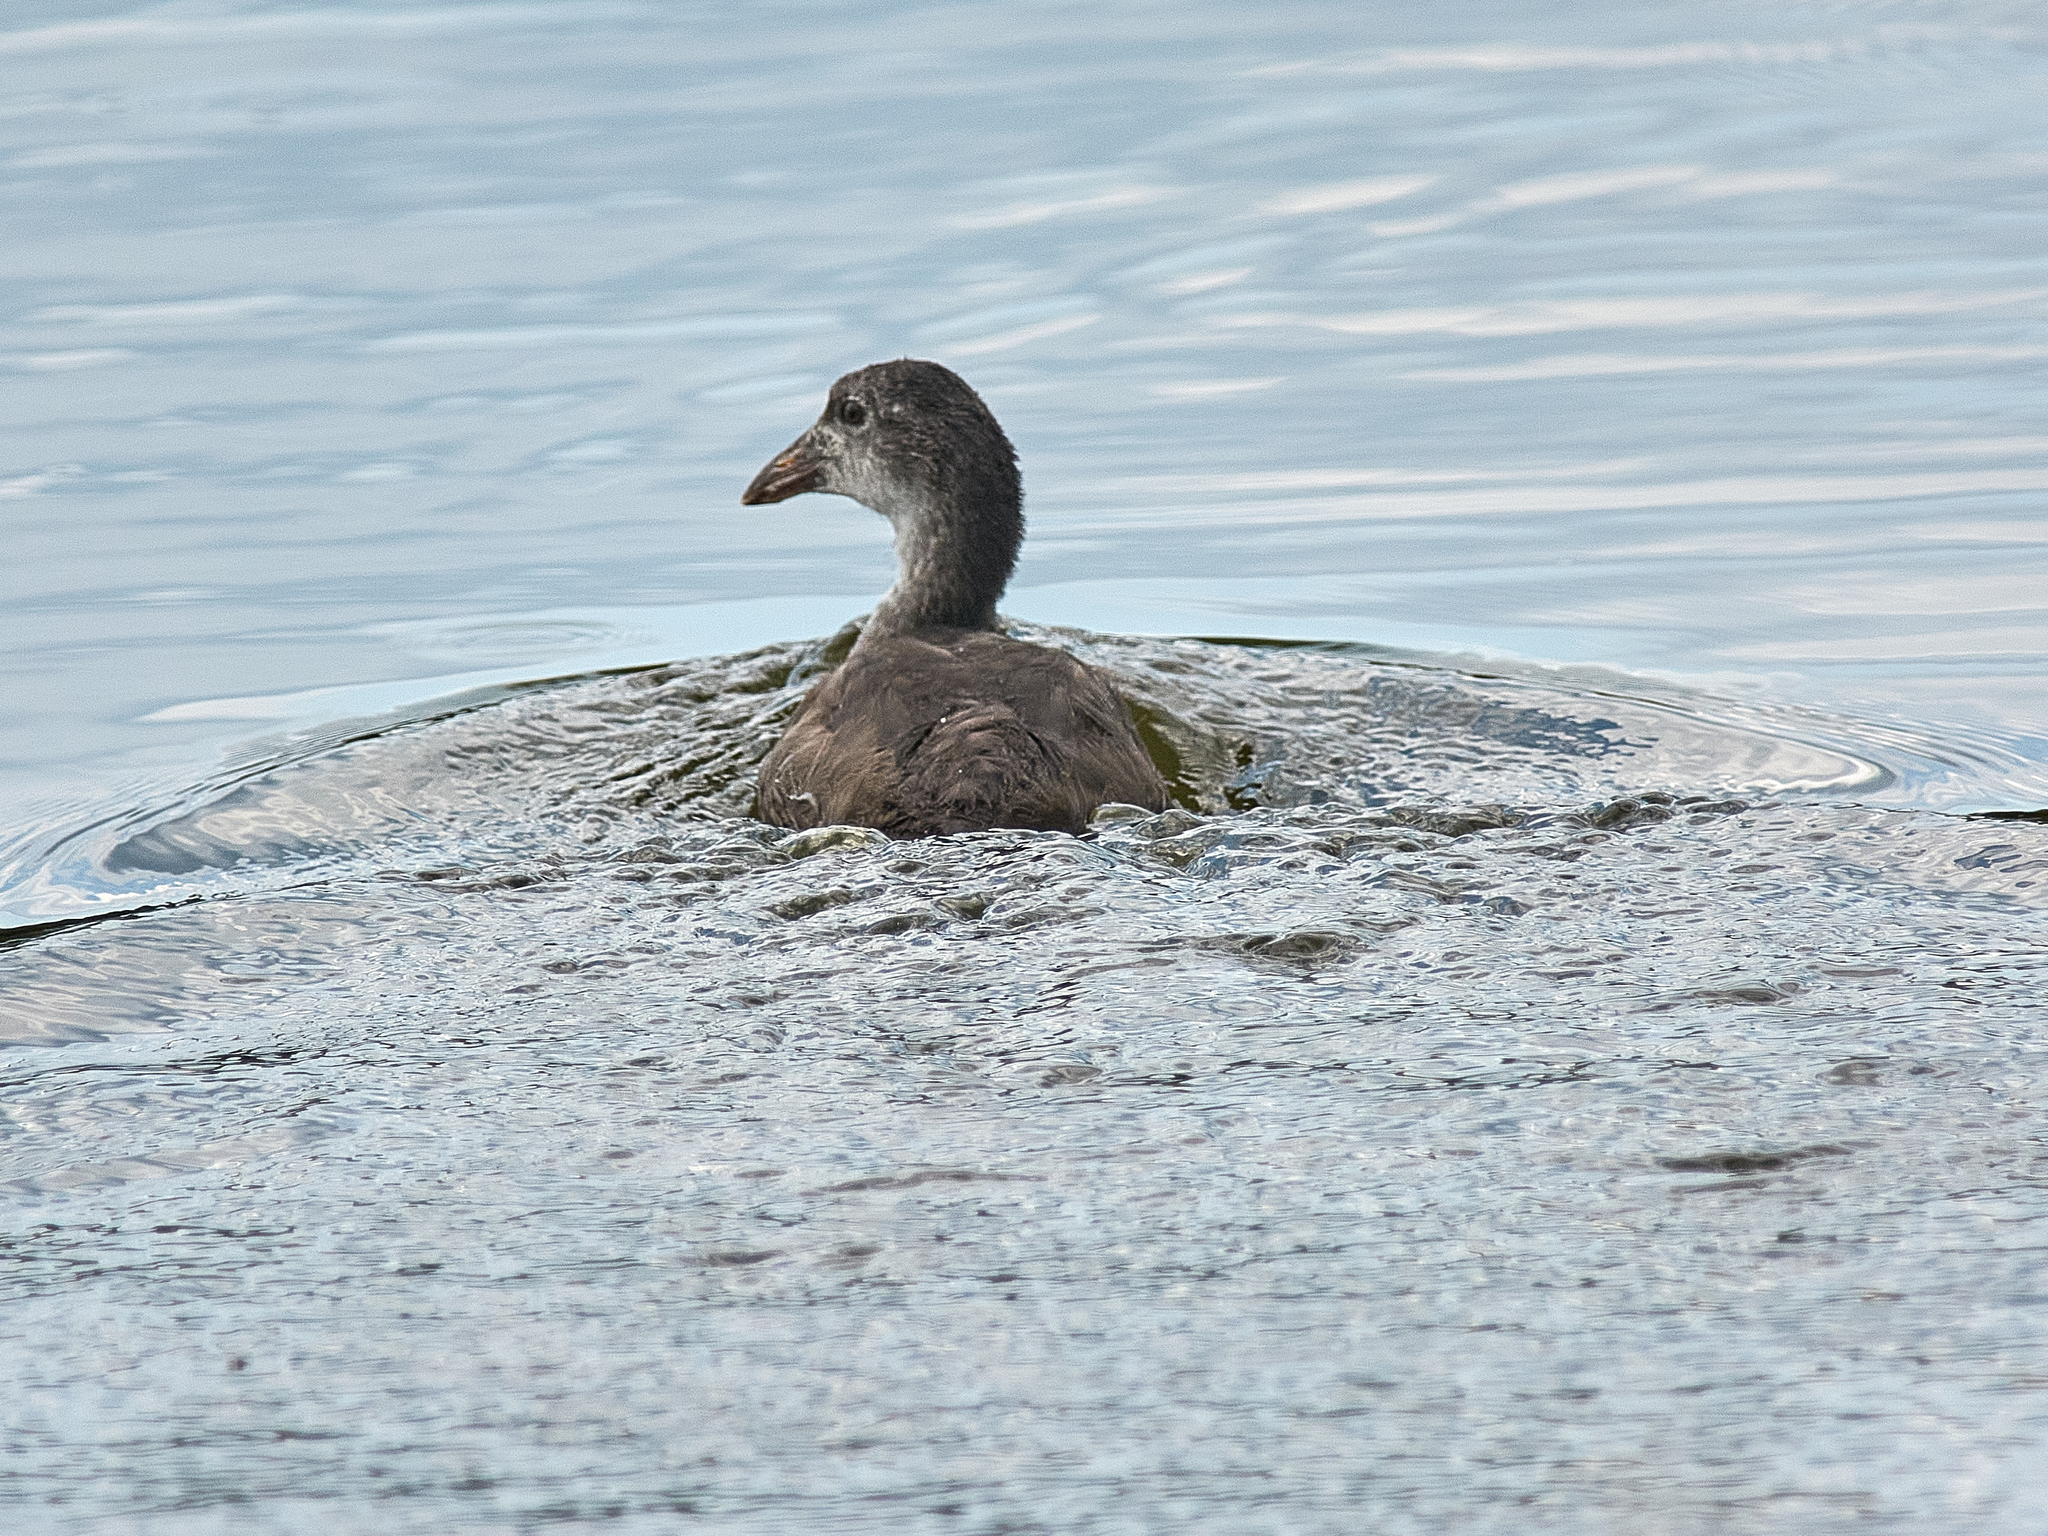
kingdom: Animalia
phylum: Chordata
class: Aves
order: Gruiformes
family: Rallidae
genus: Fulica
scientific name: Fulica atra
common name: Eurasian coot
